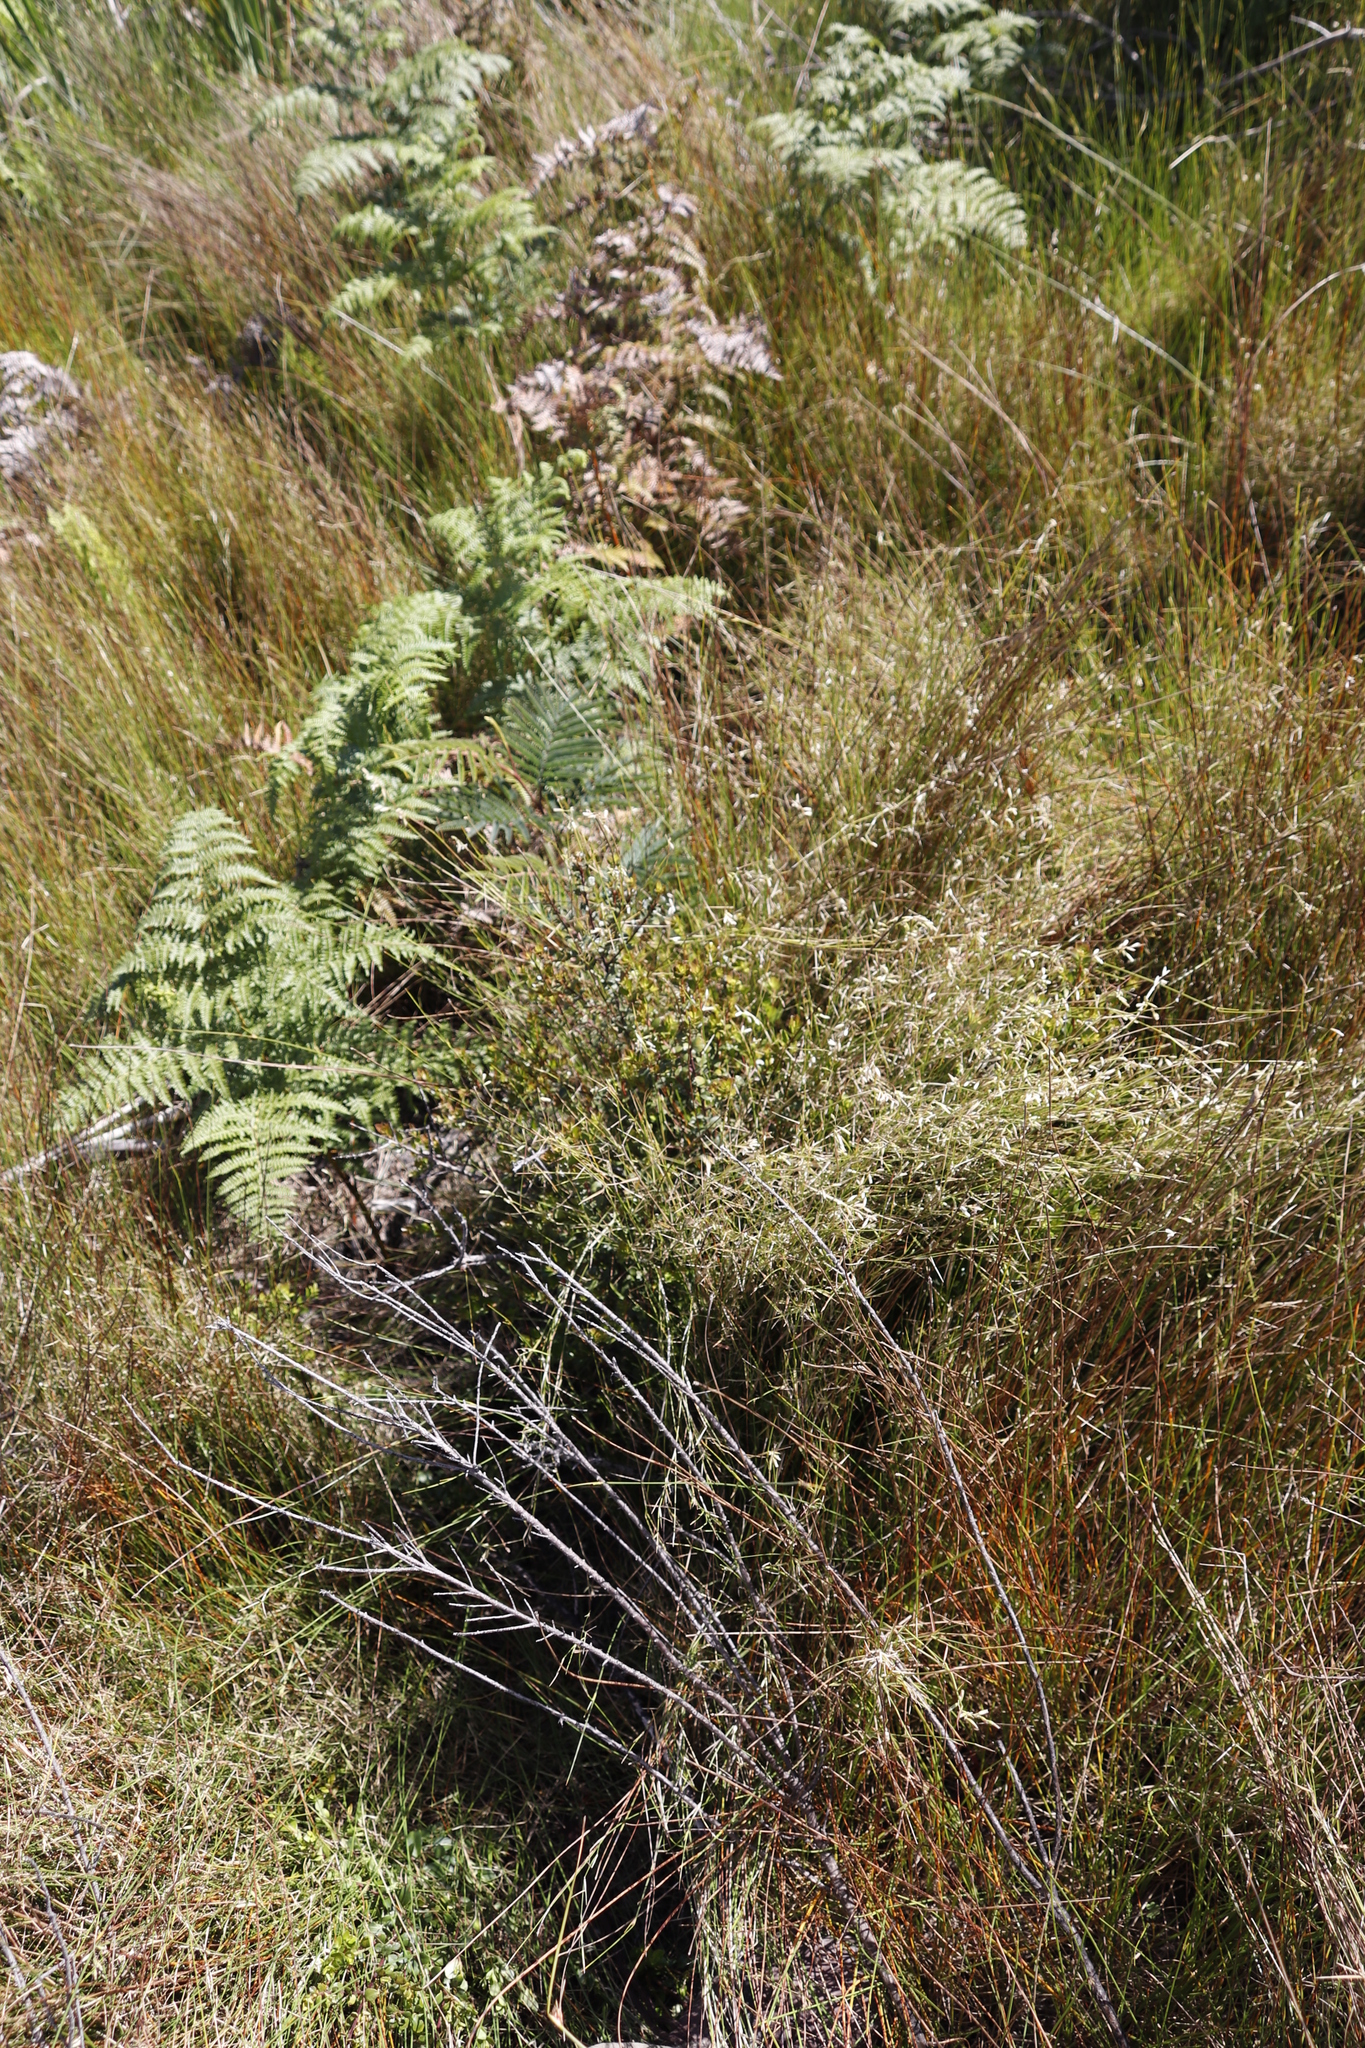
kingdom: Plantae
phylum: Tracheophyta
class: Polypodiopsida
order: Polypodiales
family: Dennstaedtiaceae
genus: Pteridium
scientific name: Pteridium aquilinum
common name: Bracken
